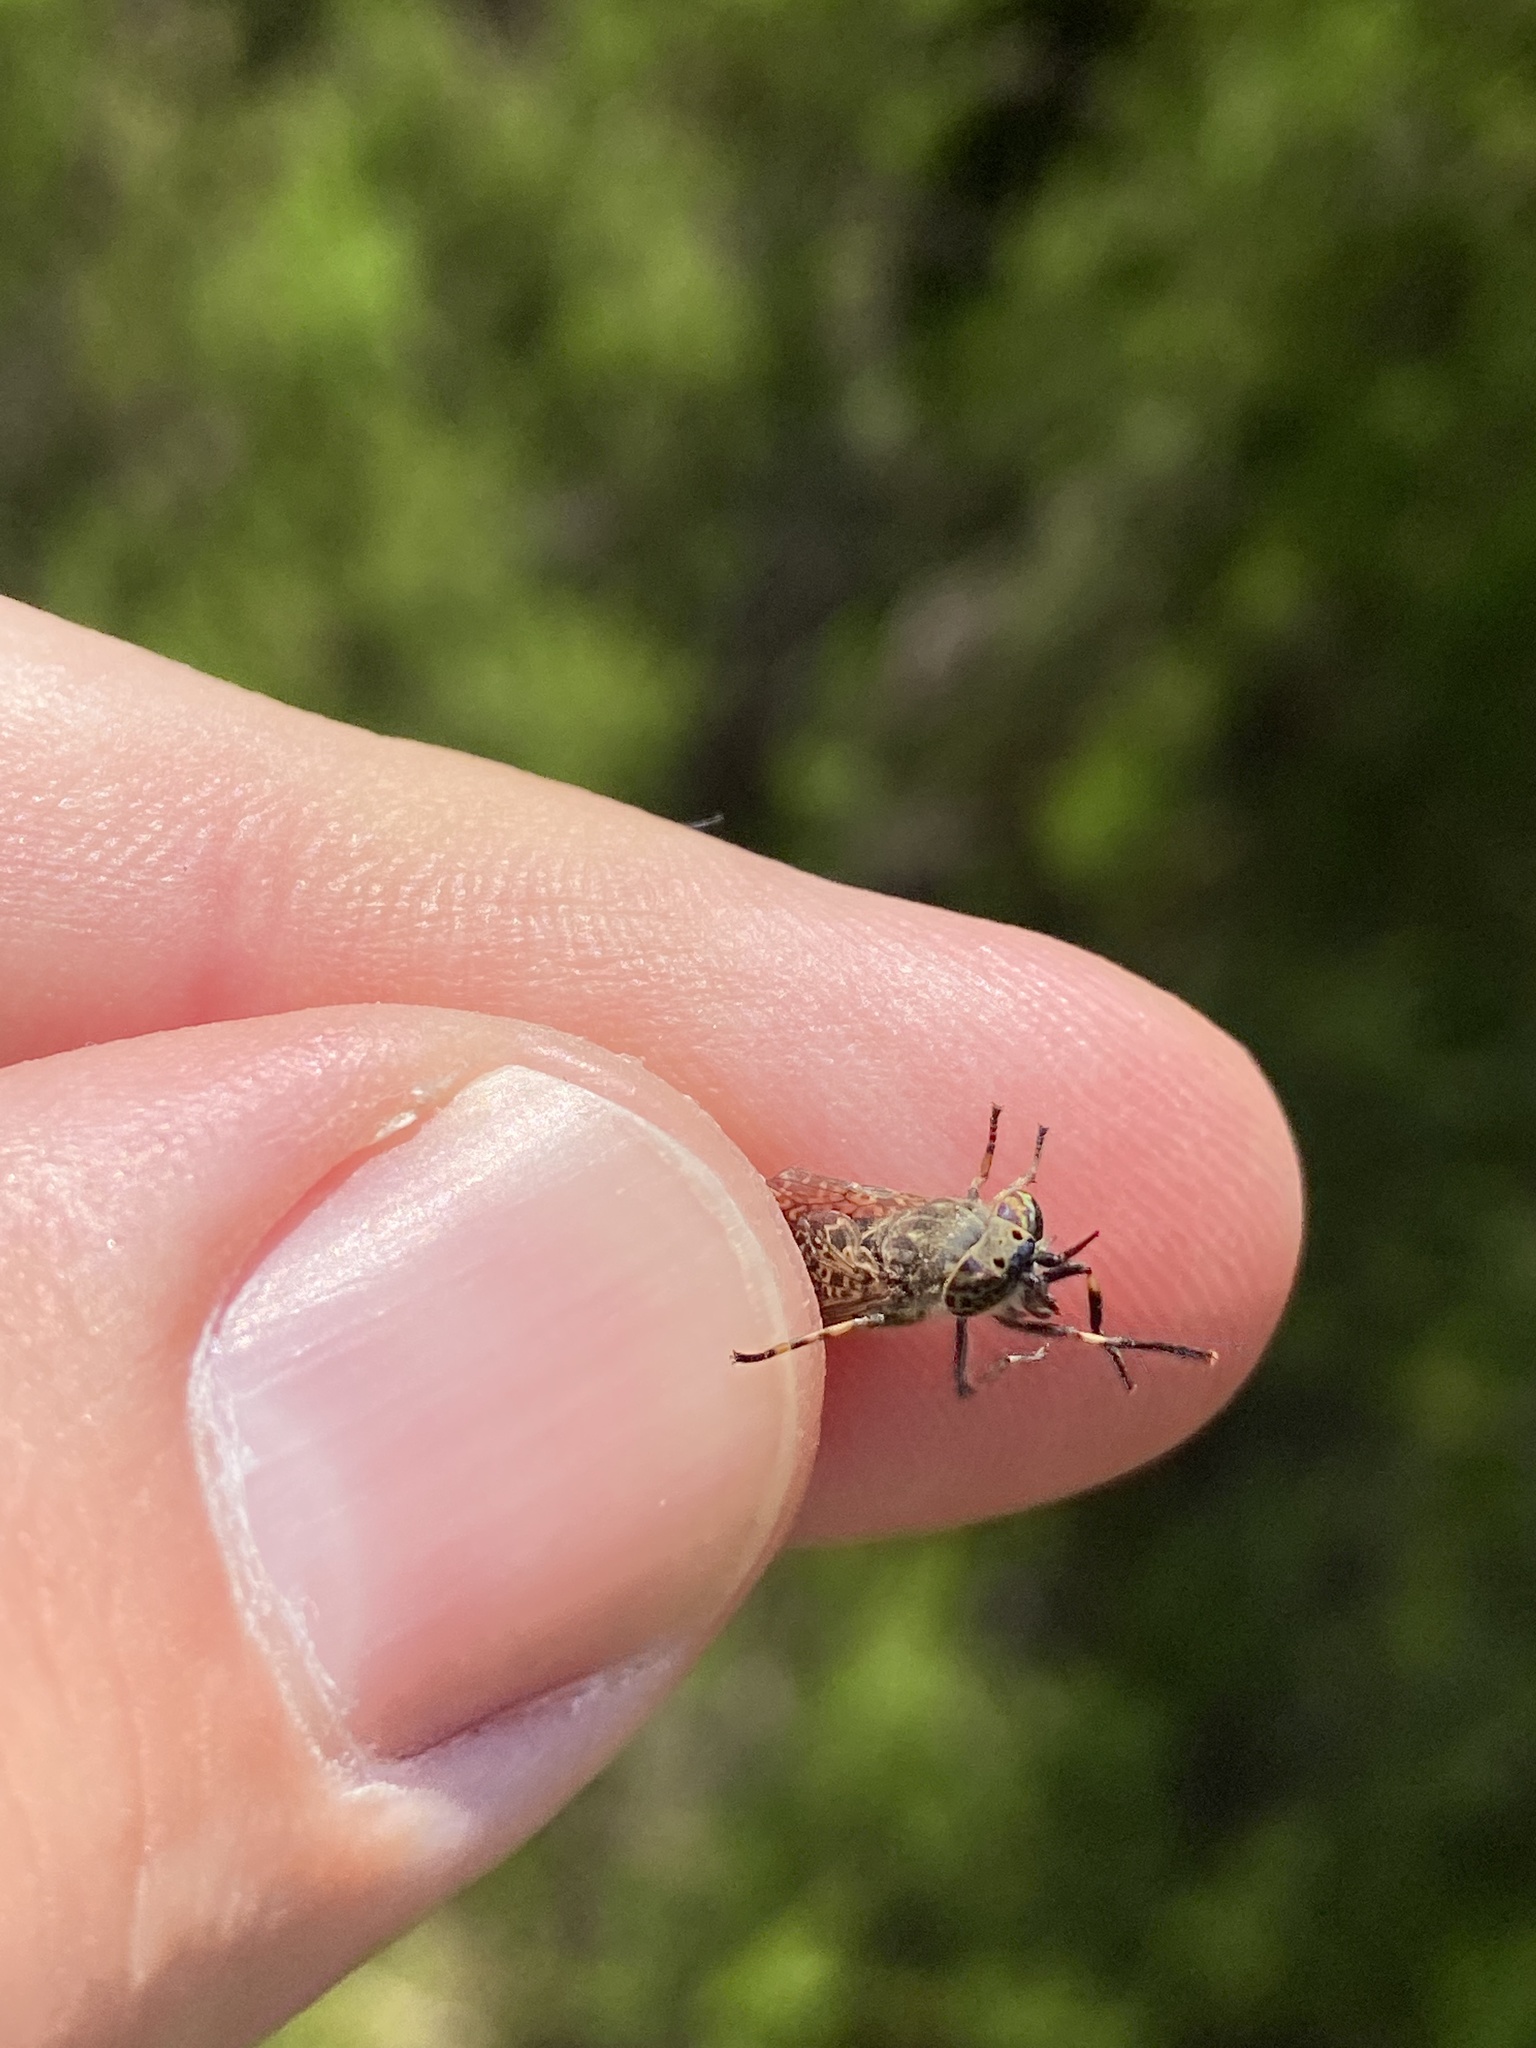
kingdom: Animalia
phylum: Arthropoda
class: Insecta
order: Diptera
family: Tabanidae
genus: Haematopota
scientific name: Haematopota pluvialis
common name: Common horse fly
